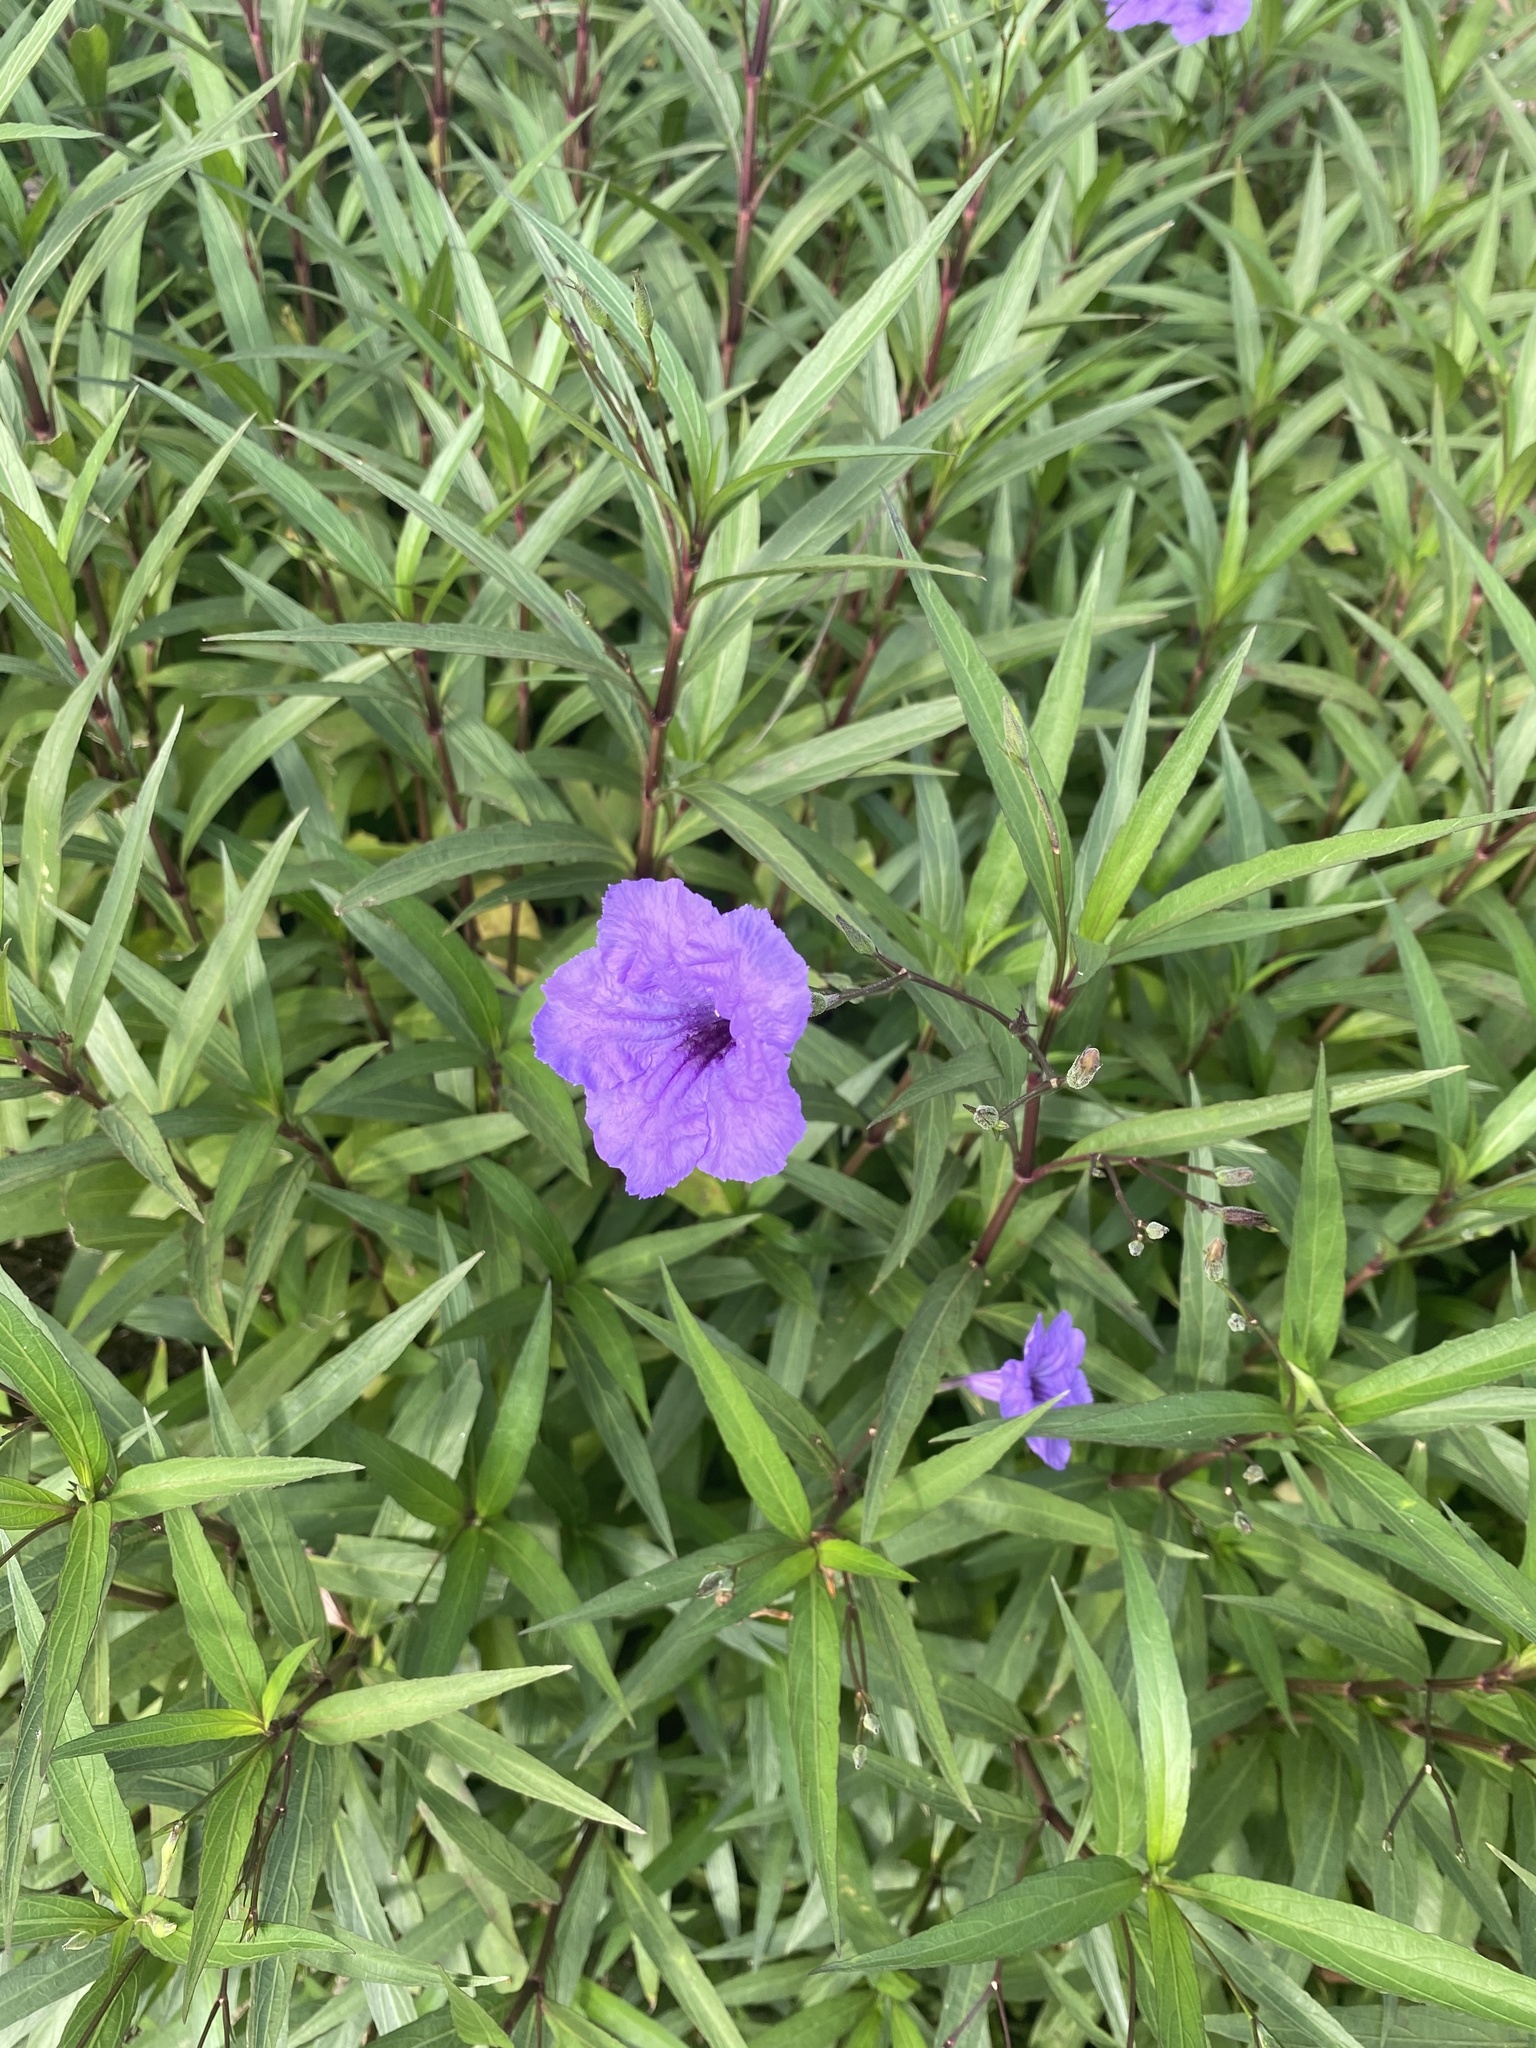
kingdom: Plantae
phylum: Tracheophyta
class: Magnoliopsida
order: Lamiales
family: Acanthaceae
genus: Ruellia
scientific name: Ruellia simplex
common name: Softseed wild petunia
